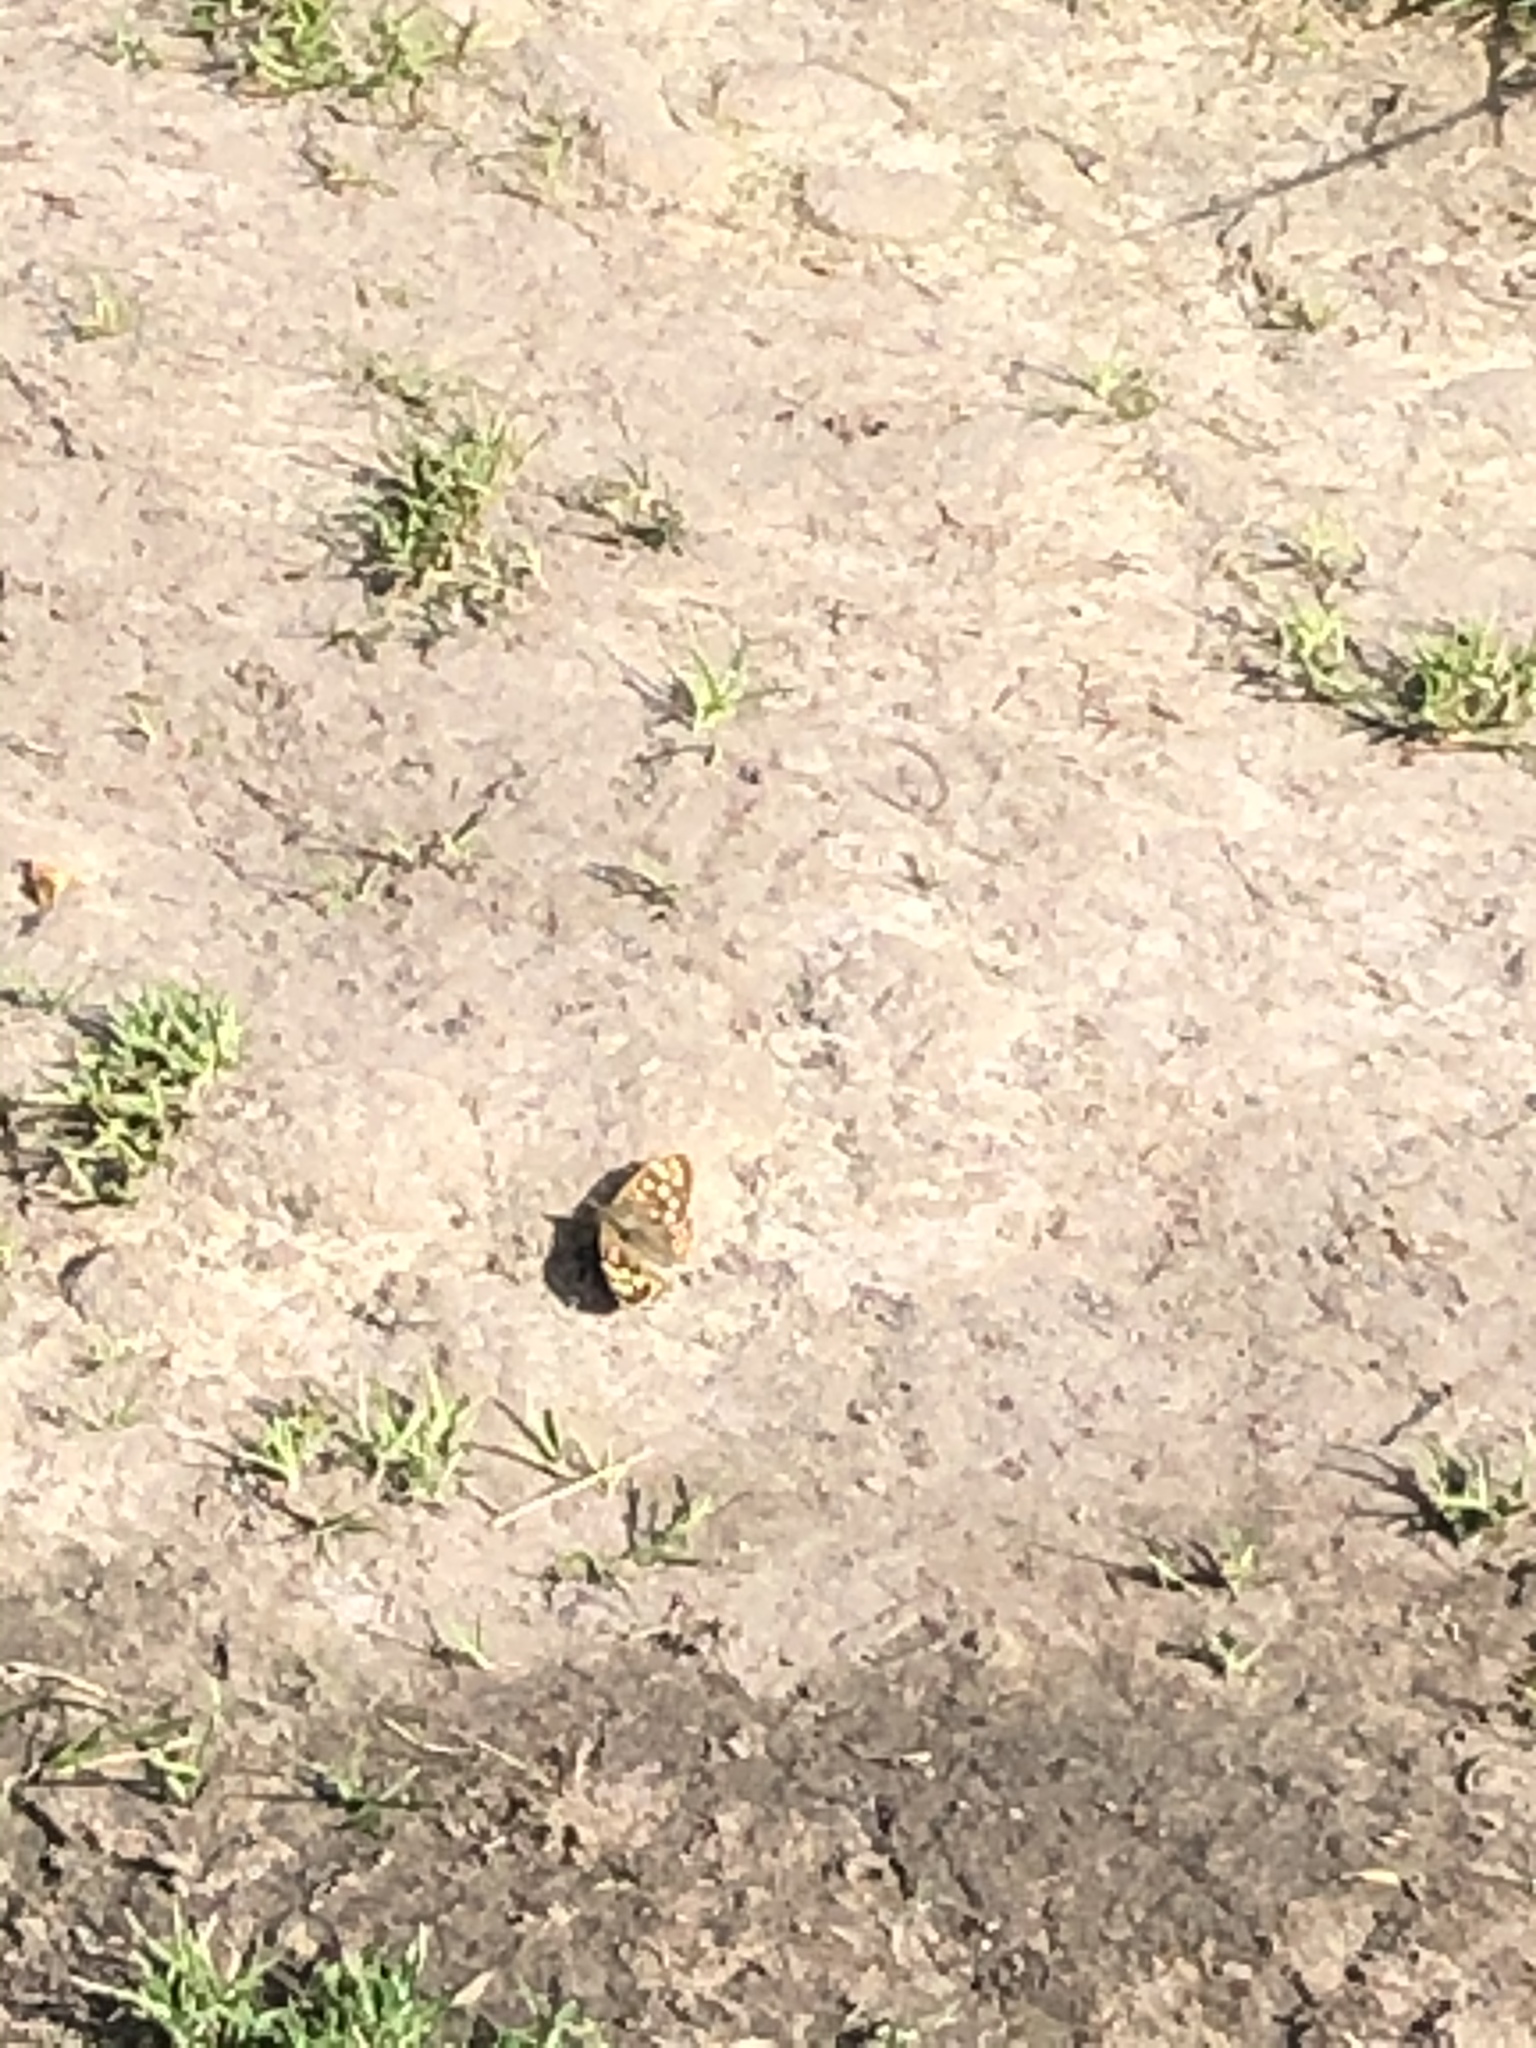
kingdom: Animalia
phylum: Arthropoda
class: Insecta
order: Lepidoptera
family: Nymphalidae
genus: Pararge
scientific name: Pararge aegeria
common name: Speckled wood
